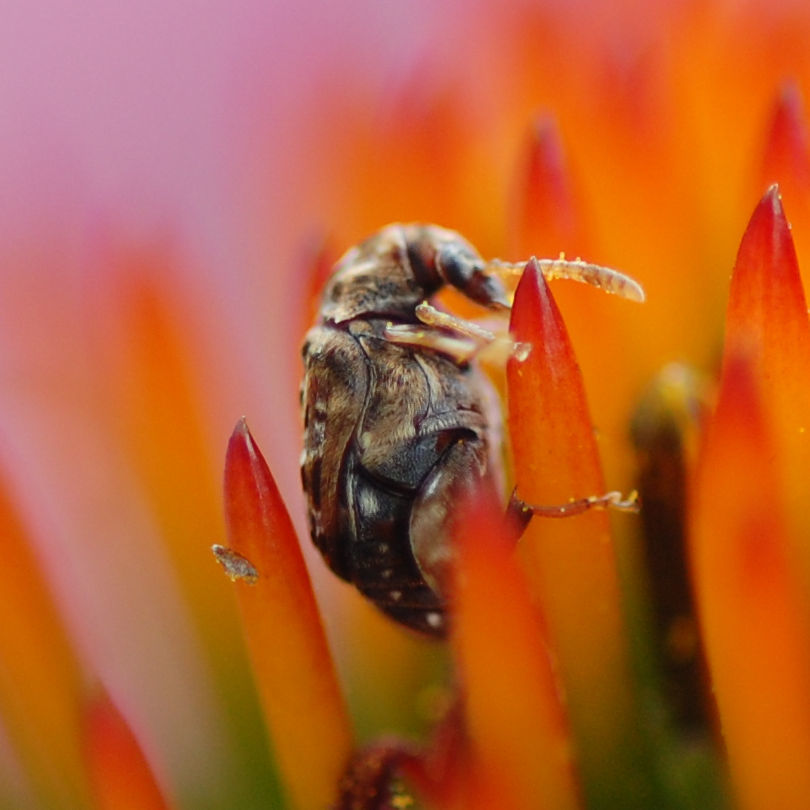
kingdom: Animalia
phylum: Arthropoda
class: Insecta
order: Coleoptera
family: Chrysomelidae
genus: Gibbobruchus
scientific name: Gibbobruchus mimus
